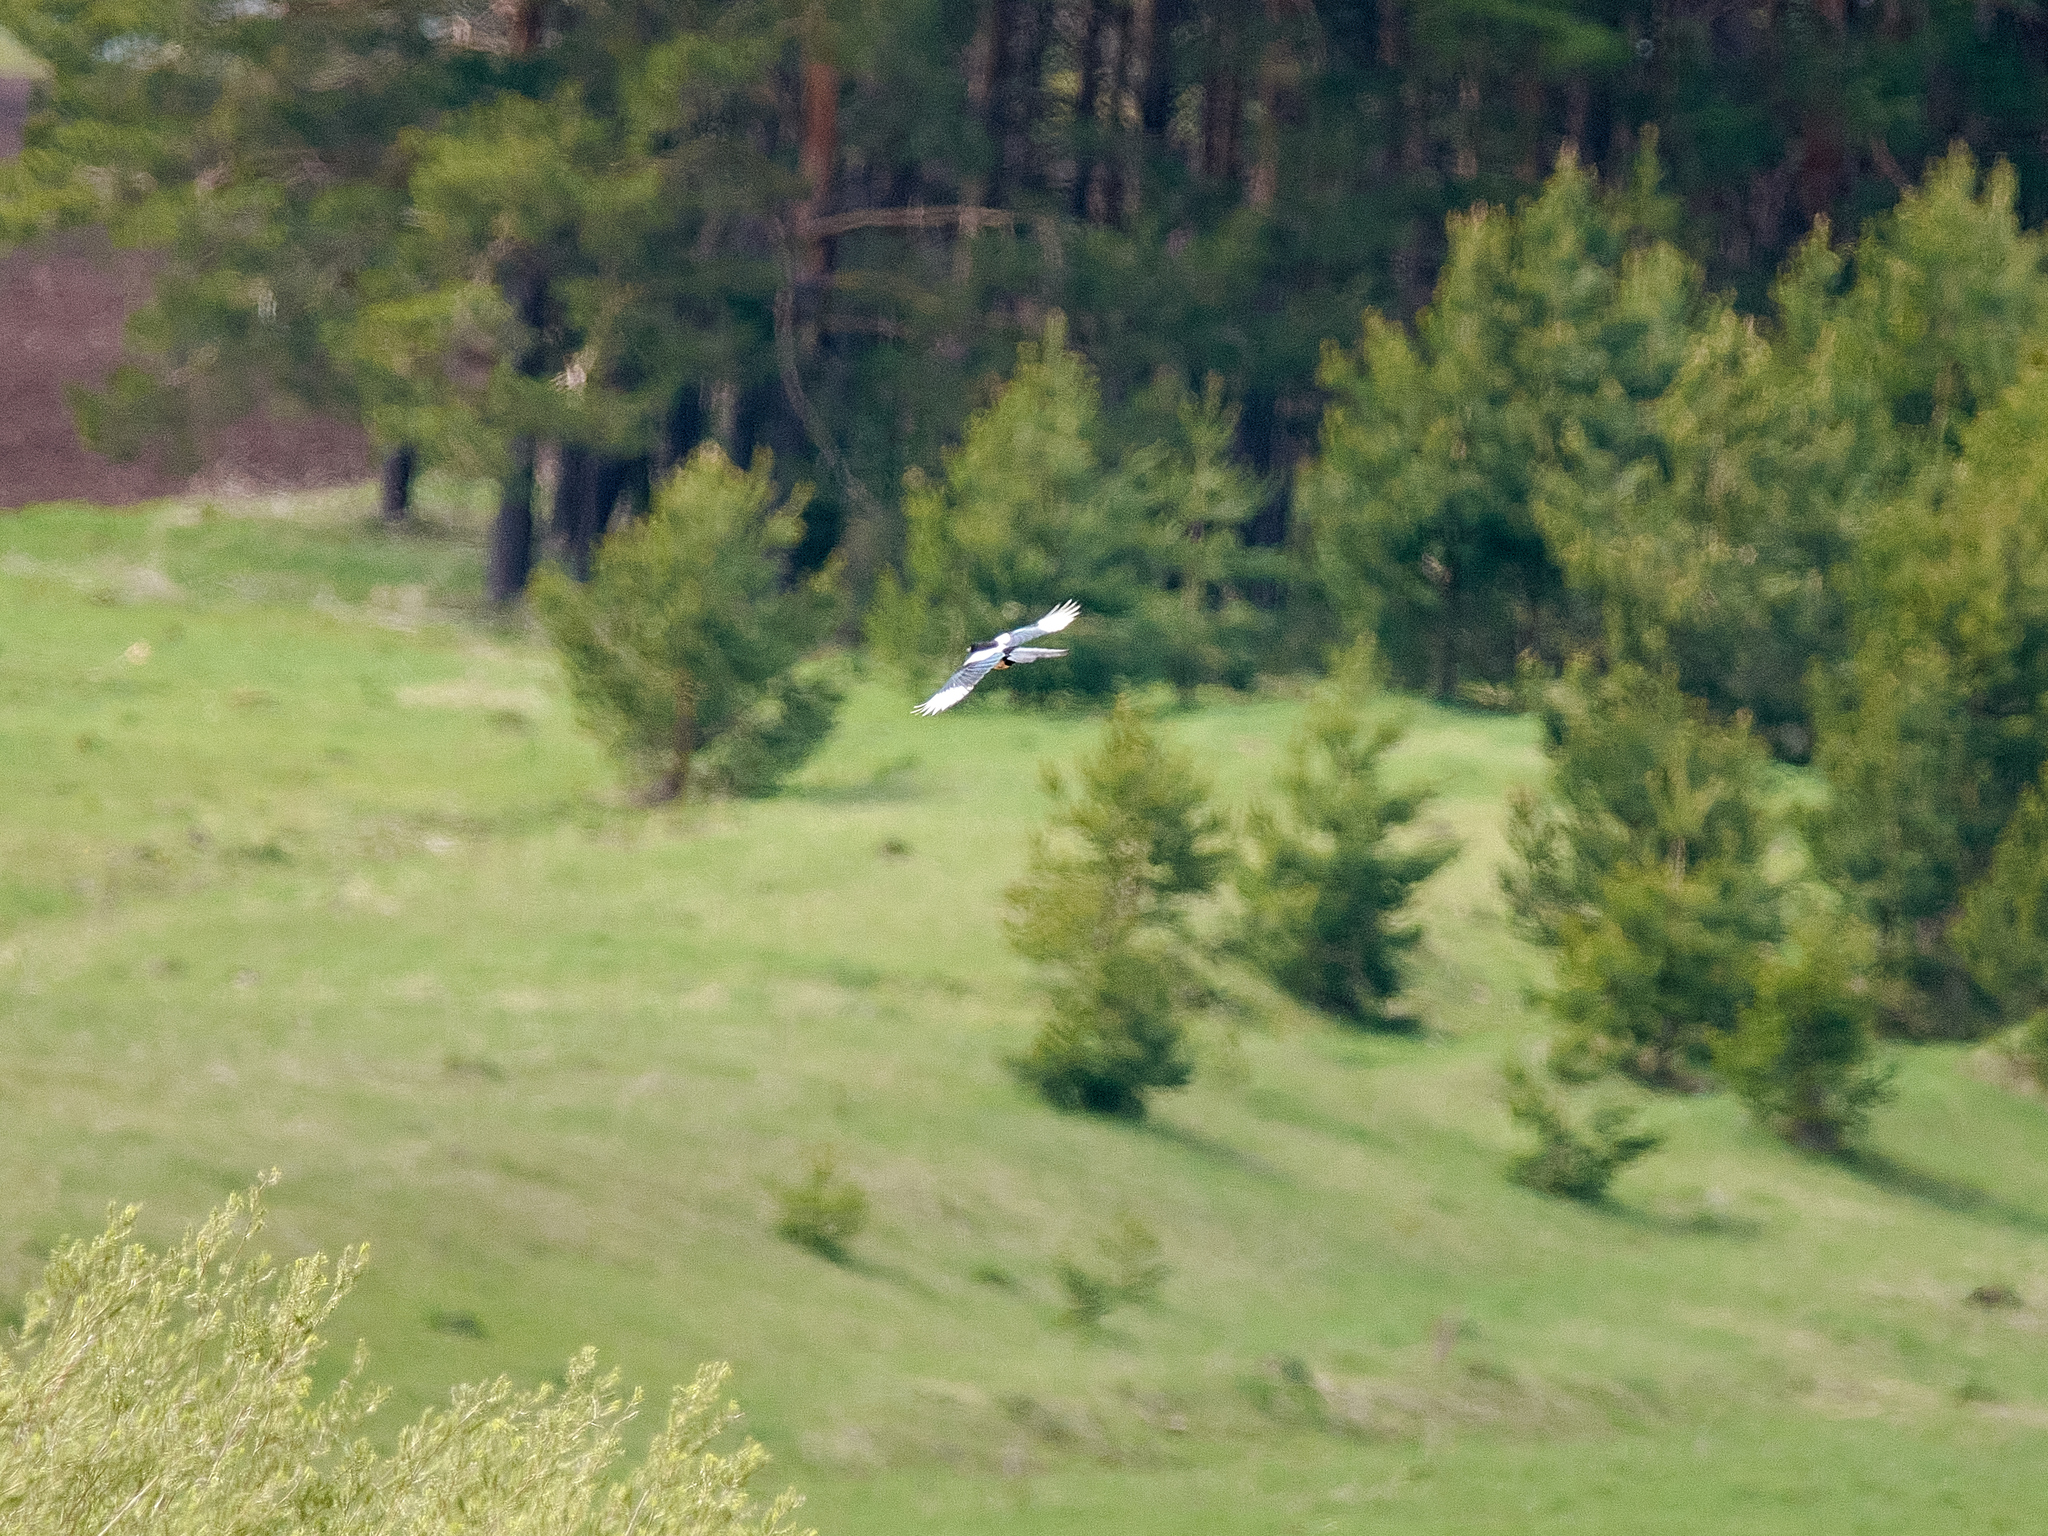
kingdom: Animalia
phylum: Chordata
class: Aves
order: Passeriformes
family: Corvidae
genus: Pica
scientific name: Pica pica
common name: Eurasian magpie
